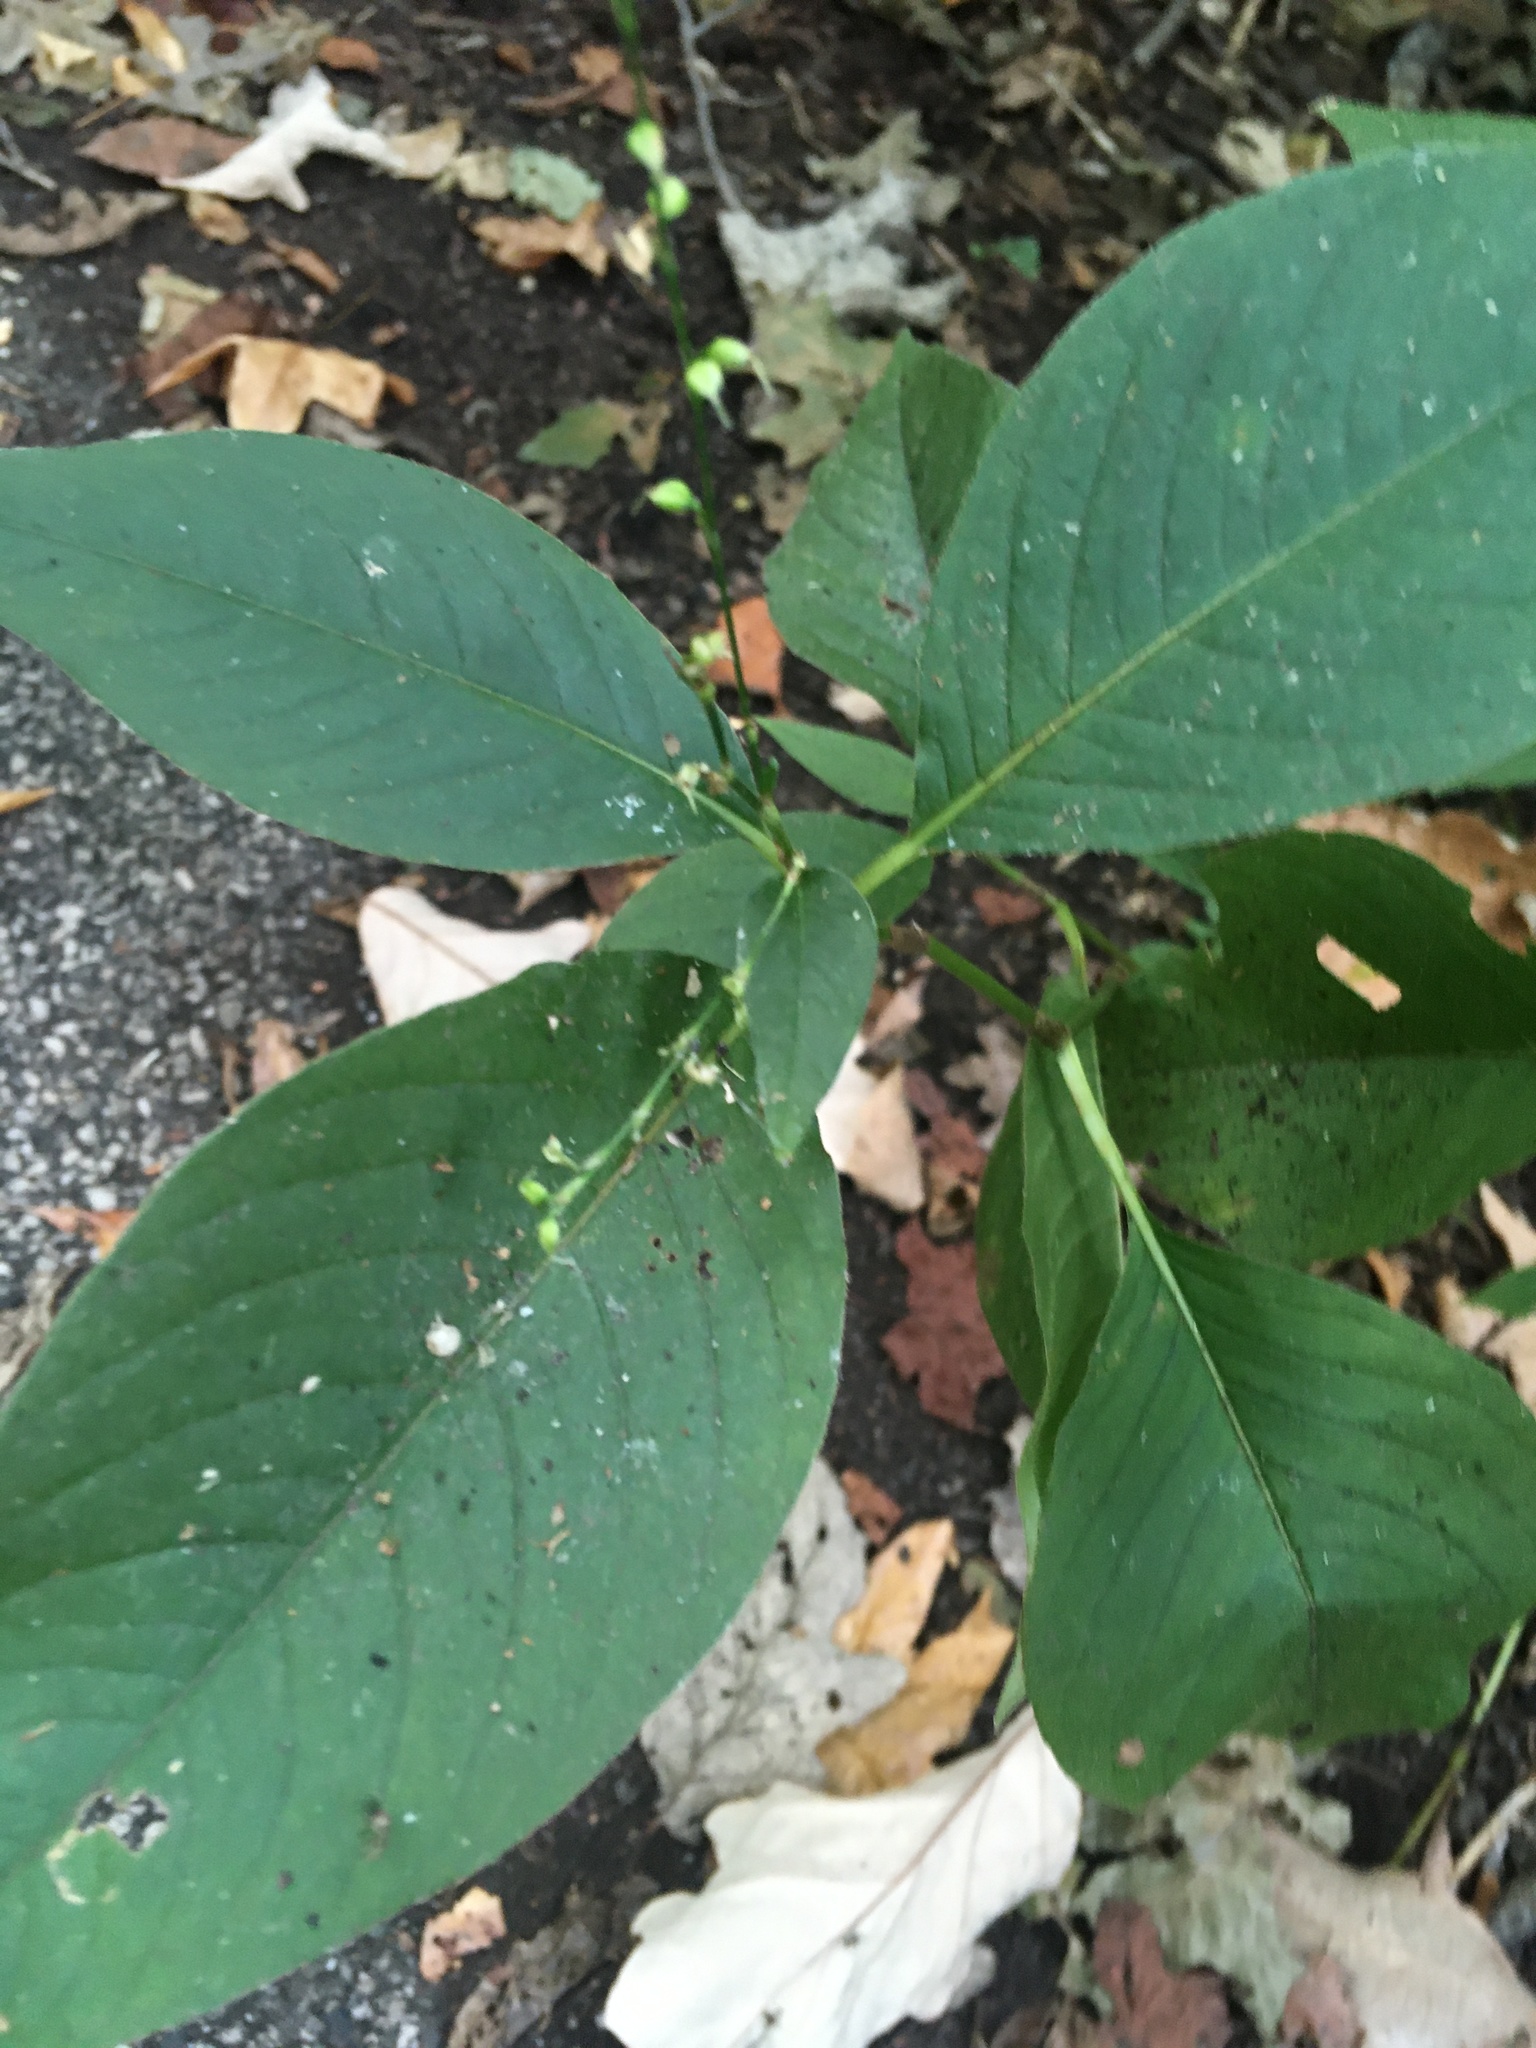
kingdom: Plantae
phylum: Tracheophyta
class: Magnoliopsida
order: Caryophyllales
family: Polygonaceae
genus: Persicaria
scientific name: Persicaria virginiana
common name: Jumpseed
